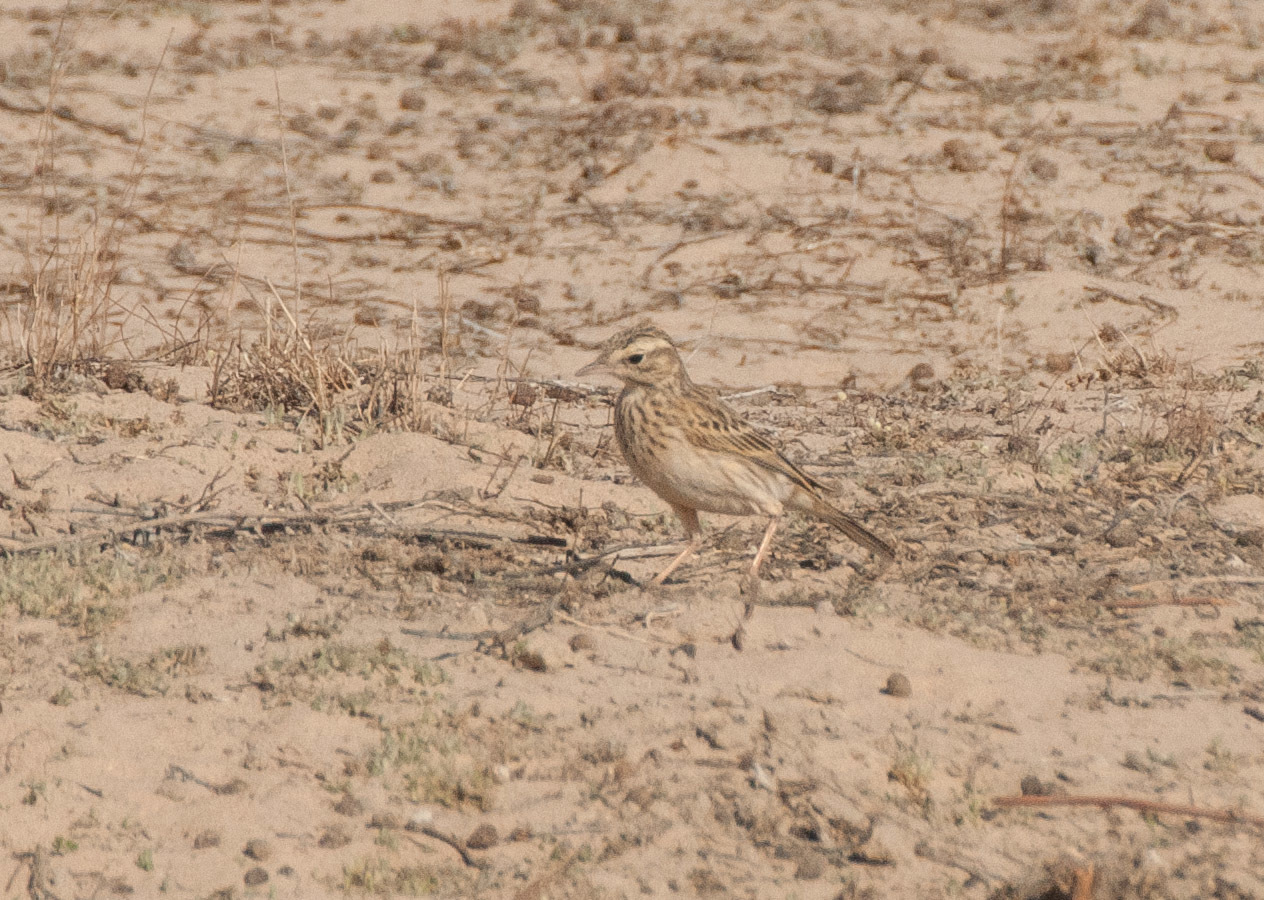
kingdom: Animalia
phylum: Chordata
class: Aves
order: Passeriformes
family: Motacillidae
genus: Anthus
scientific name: Anthus australis
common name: Australian pipit
